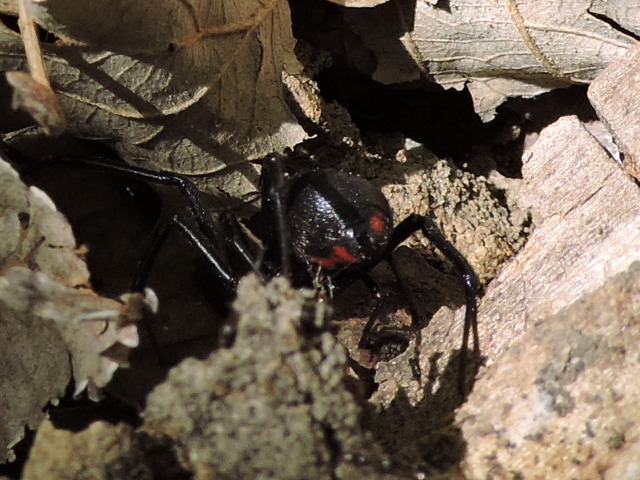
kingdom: Animalia
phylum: Arthropoda
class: Arachnida
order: Araneae
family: Theridiidae
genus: Latrodectus
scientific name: Latrodectus mactans
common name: Cobweb spiders
